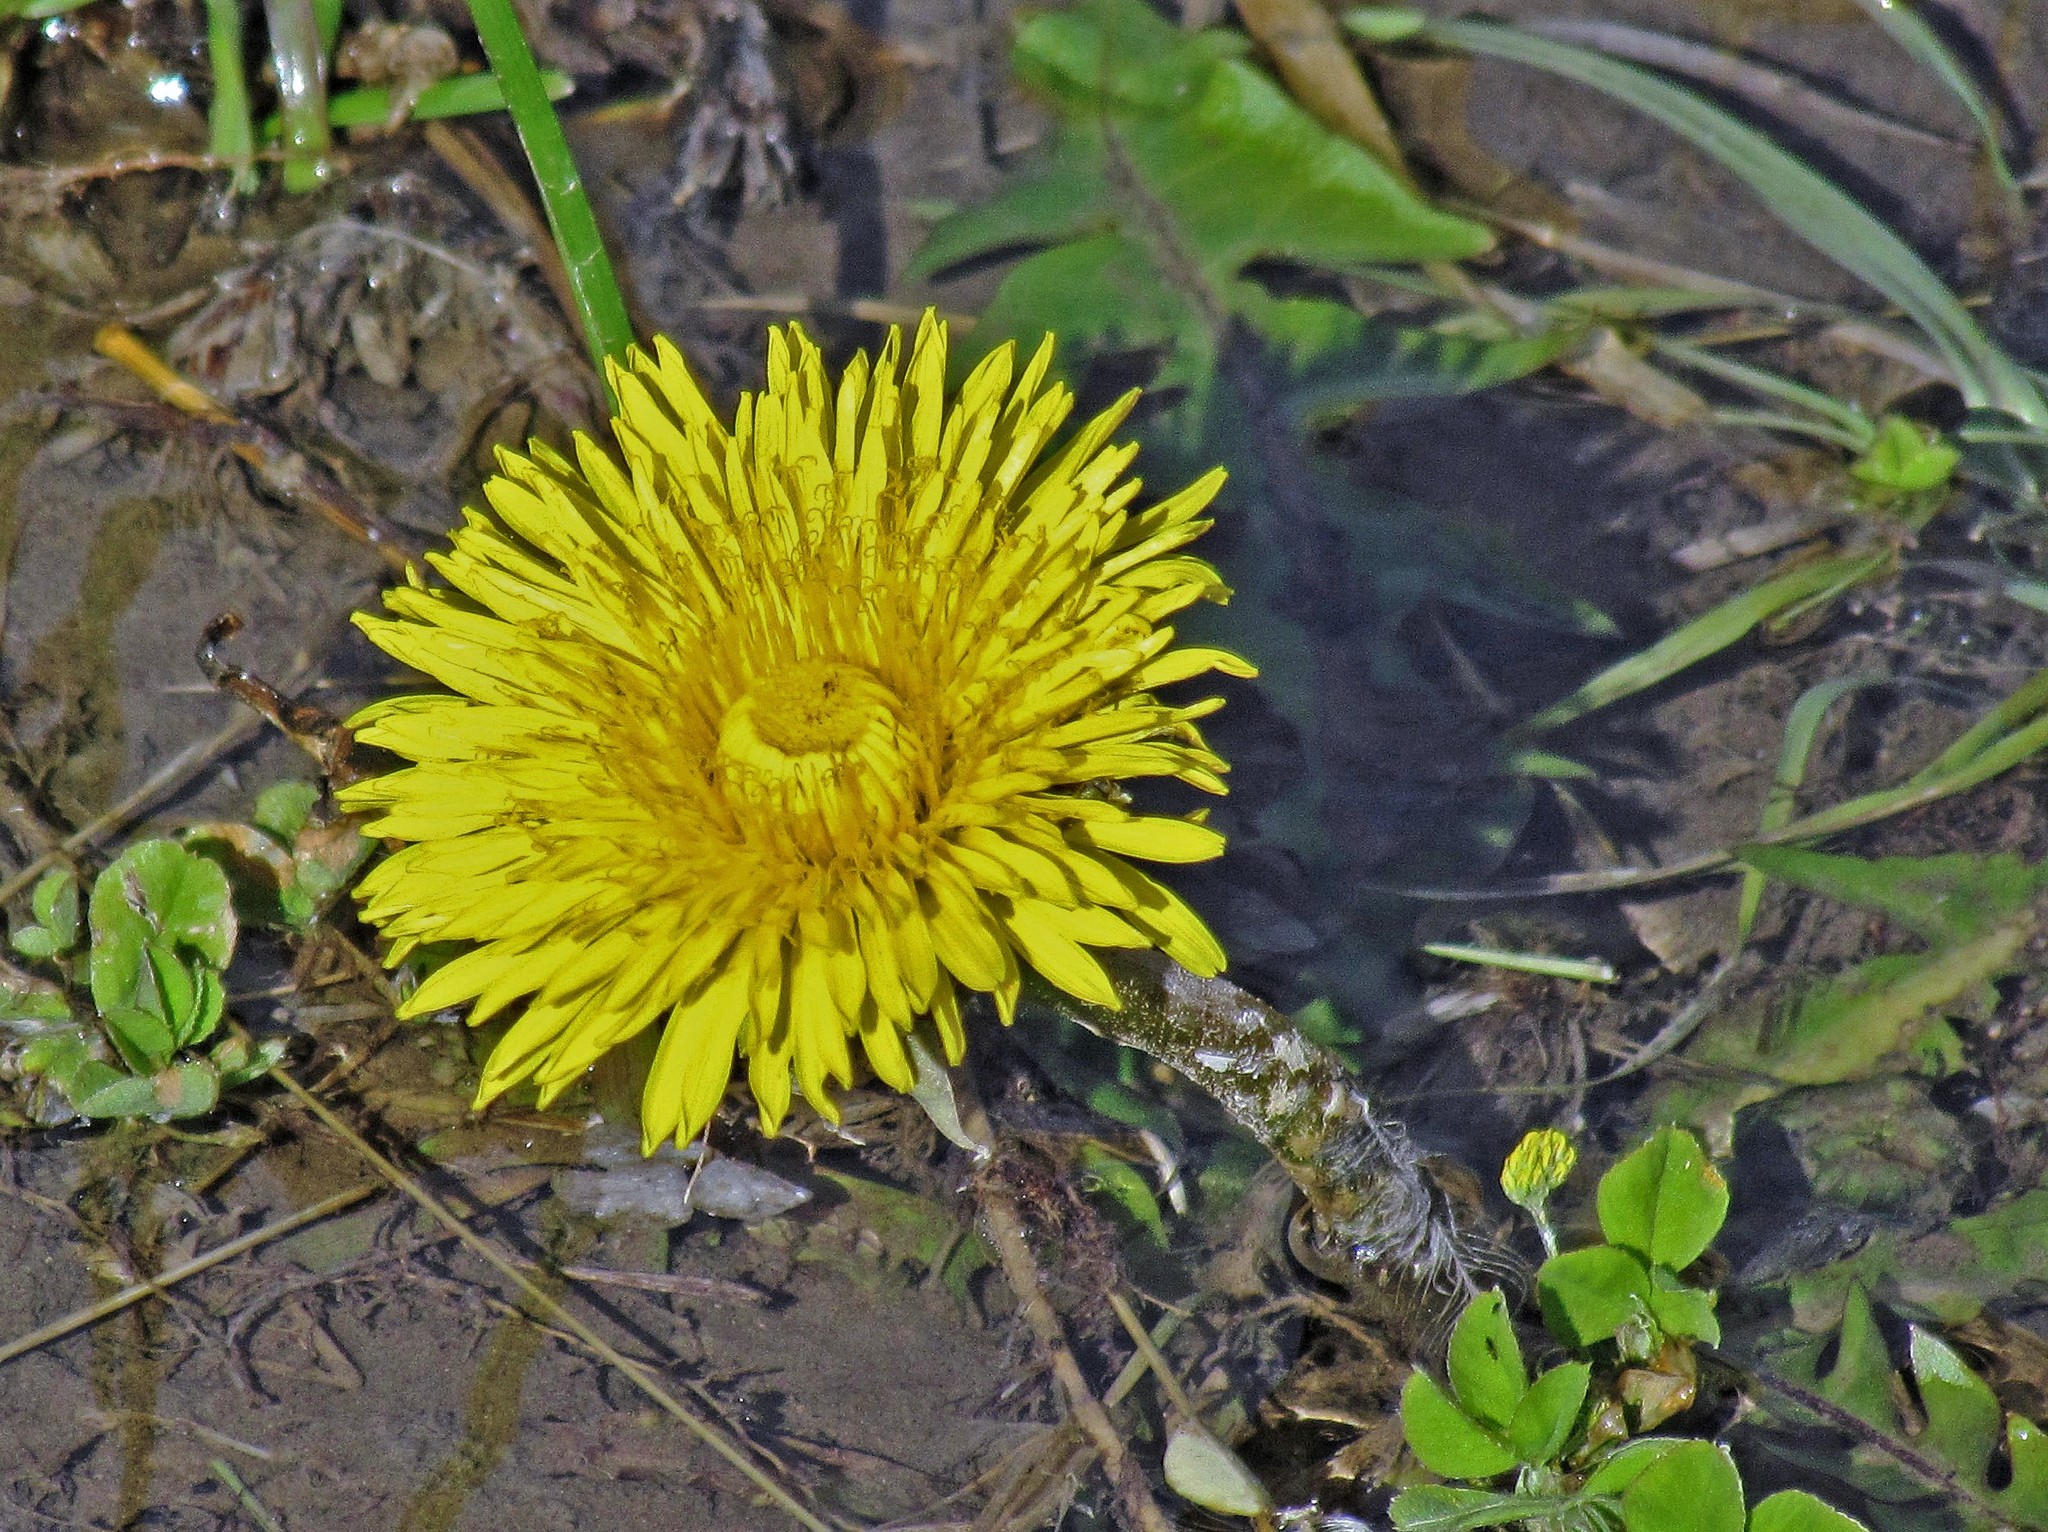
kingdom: Plantae
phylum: Tracheophyta
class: Magnoliopsida
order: Asterales
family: Asteraceae
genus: Taraxacum
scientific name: Taraxacum officinale
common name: Common dandelion
